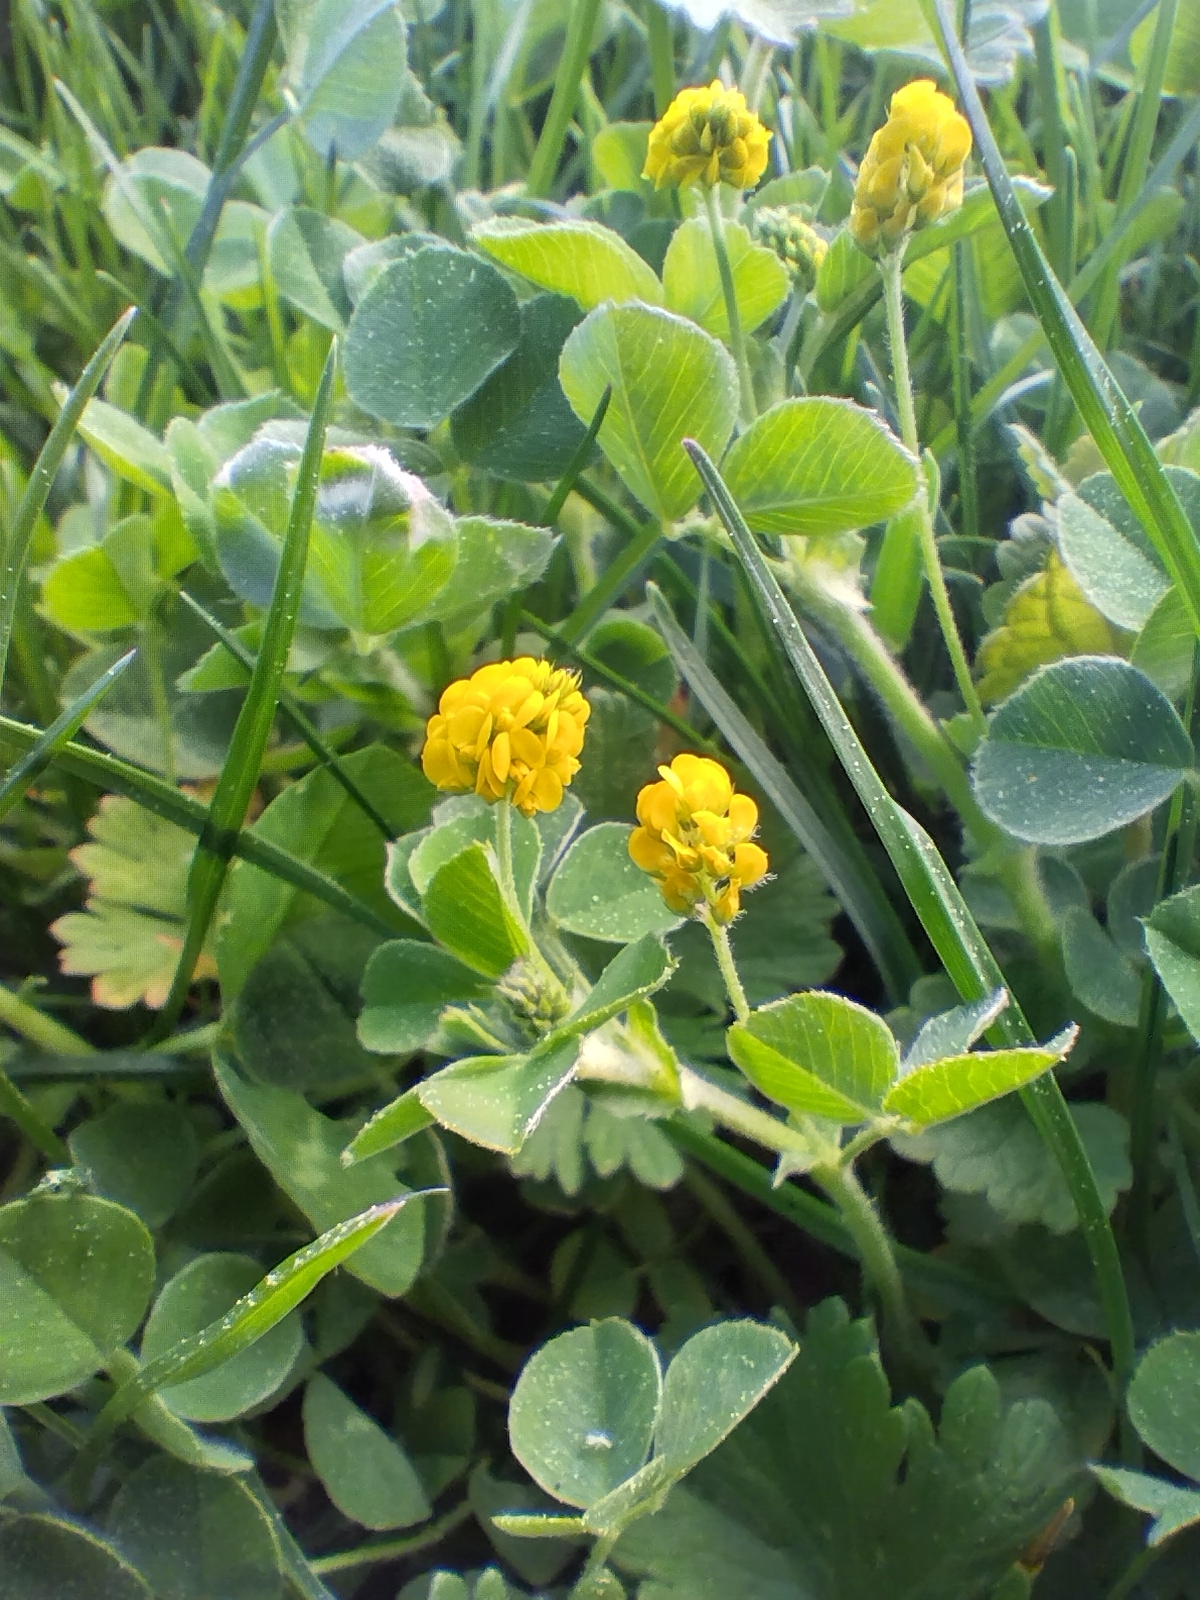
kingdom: Plantae
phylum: Tracheophyta
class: Magnoliopsida
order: Fabales
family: Fabaceae
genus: Medicago
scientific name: Medicago lupulina
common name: Black medick
